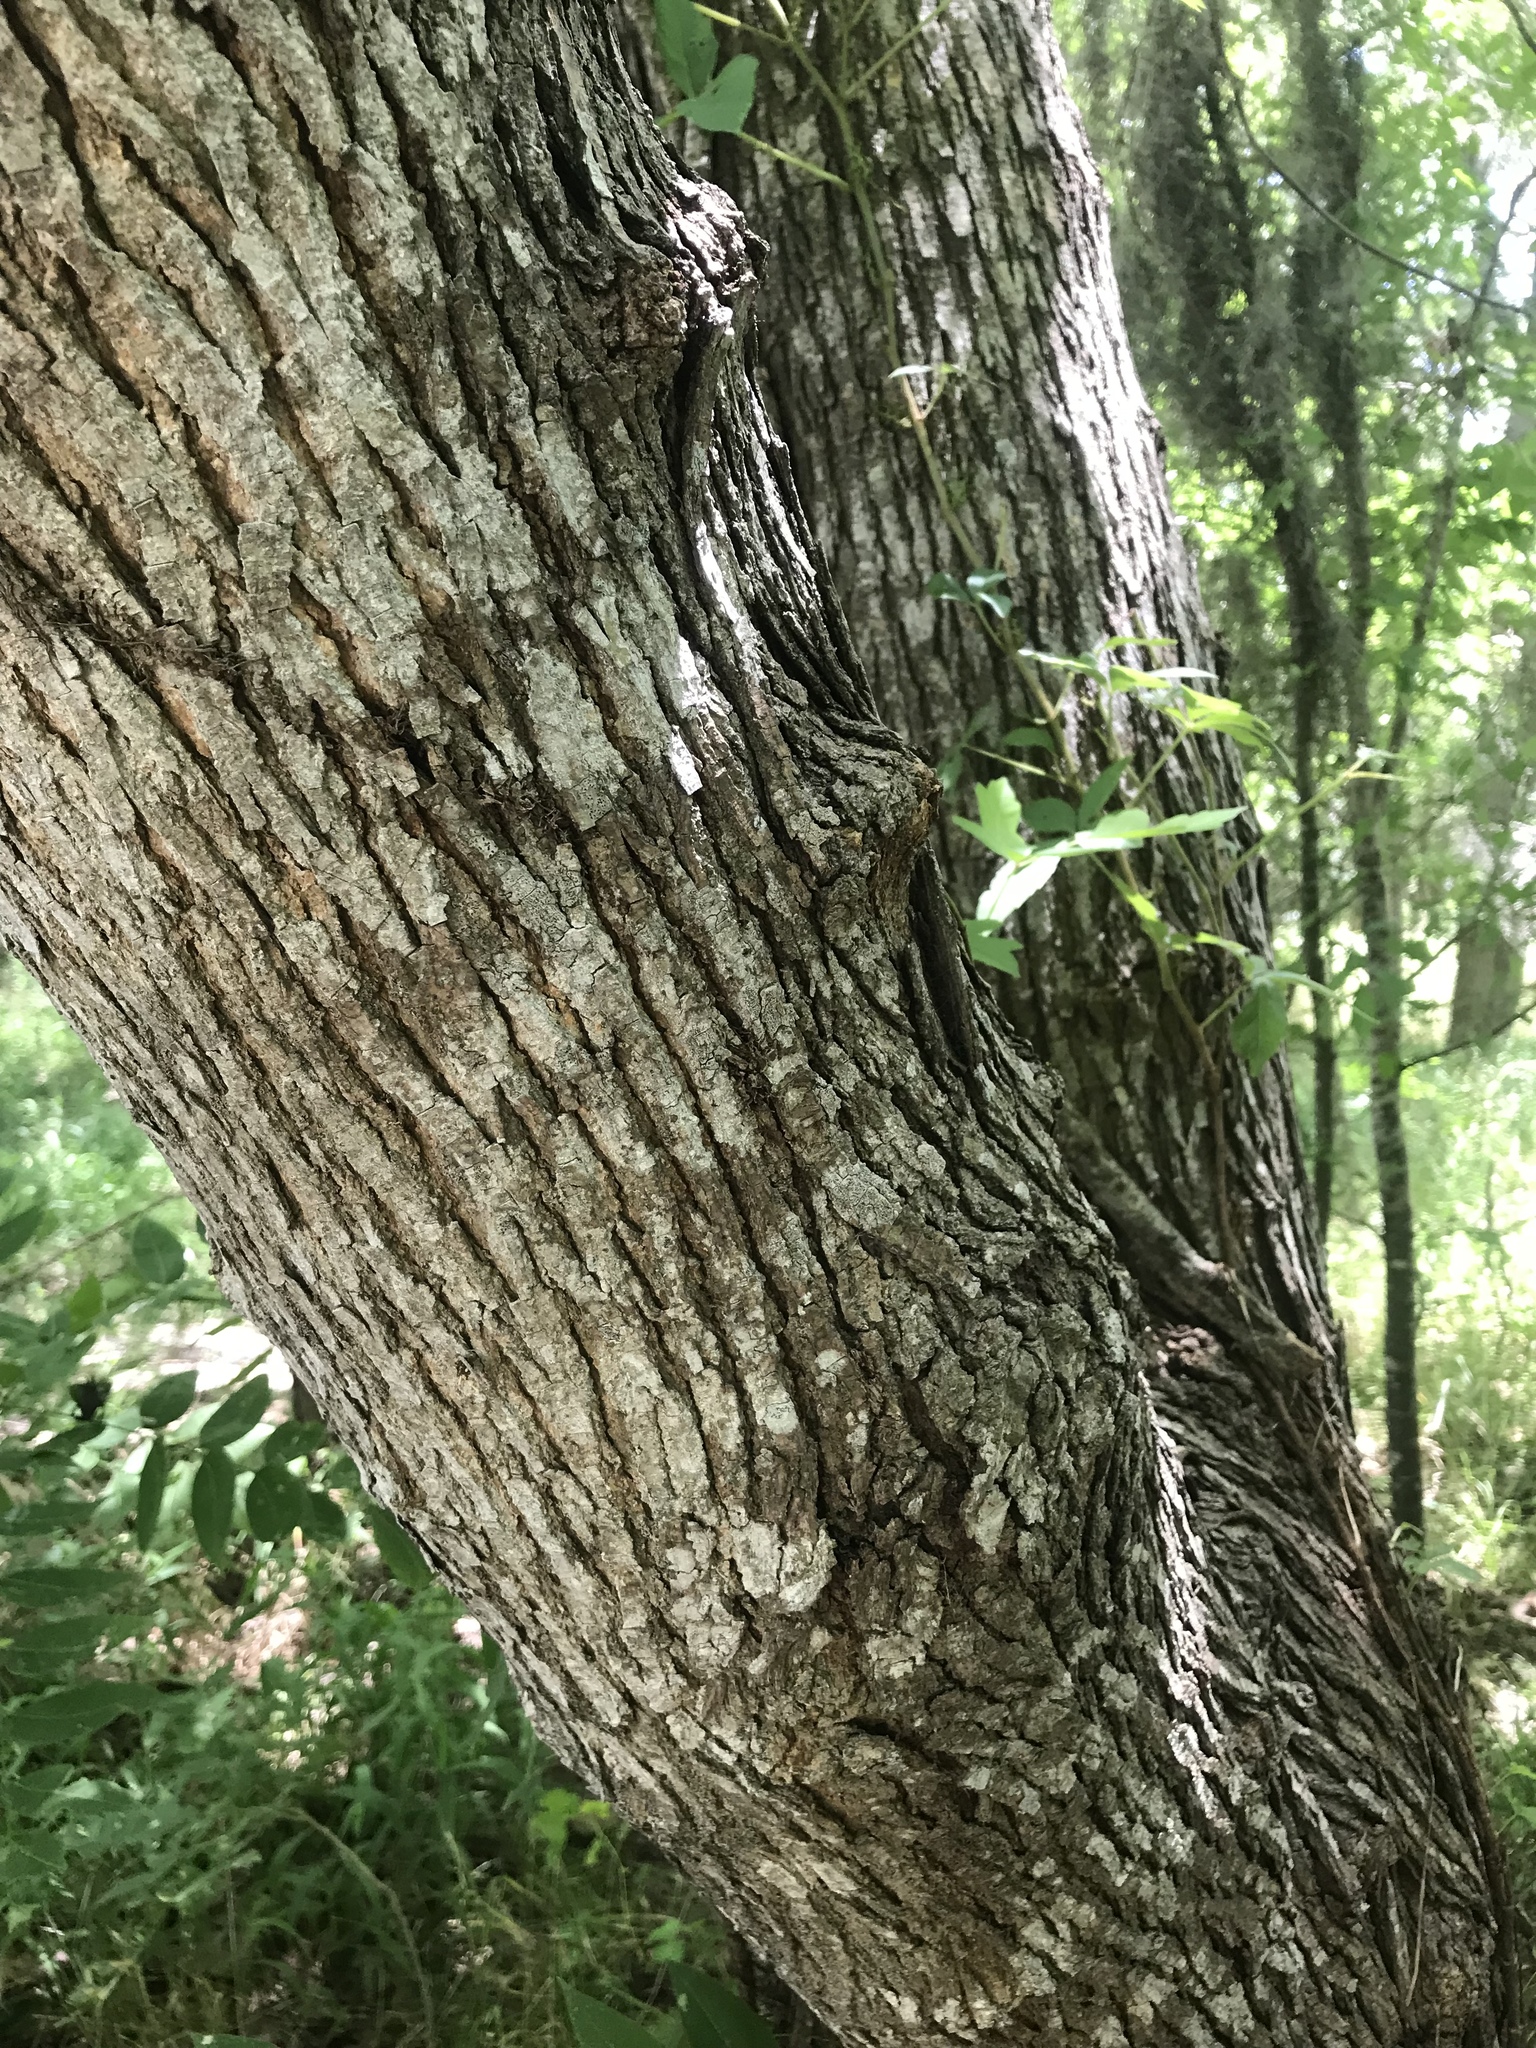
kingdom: Plantae
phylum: Tracheophyta
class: Magnoliopsida
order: Rosales
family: Moraceae
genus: Morus
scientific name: Morus rubra
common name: Red mulberry
